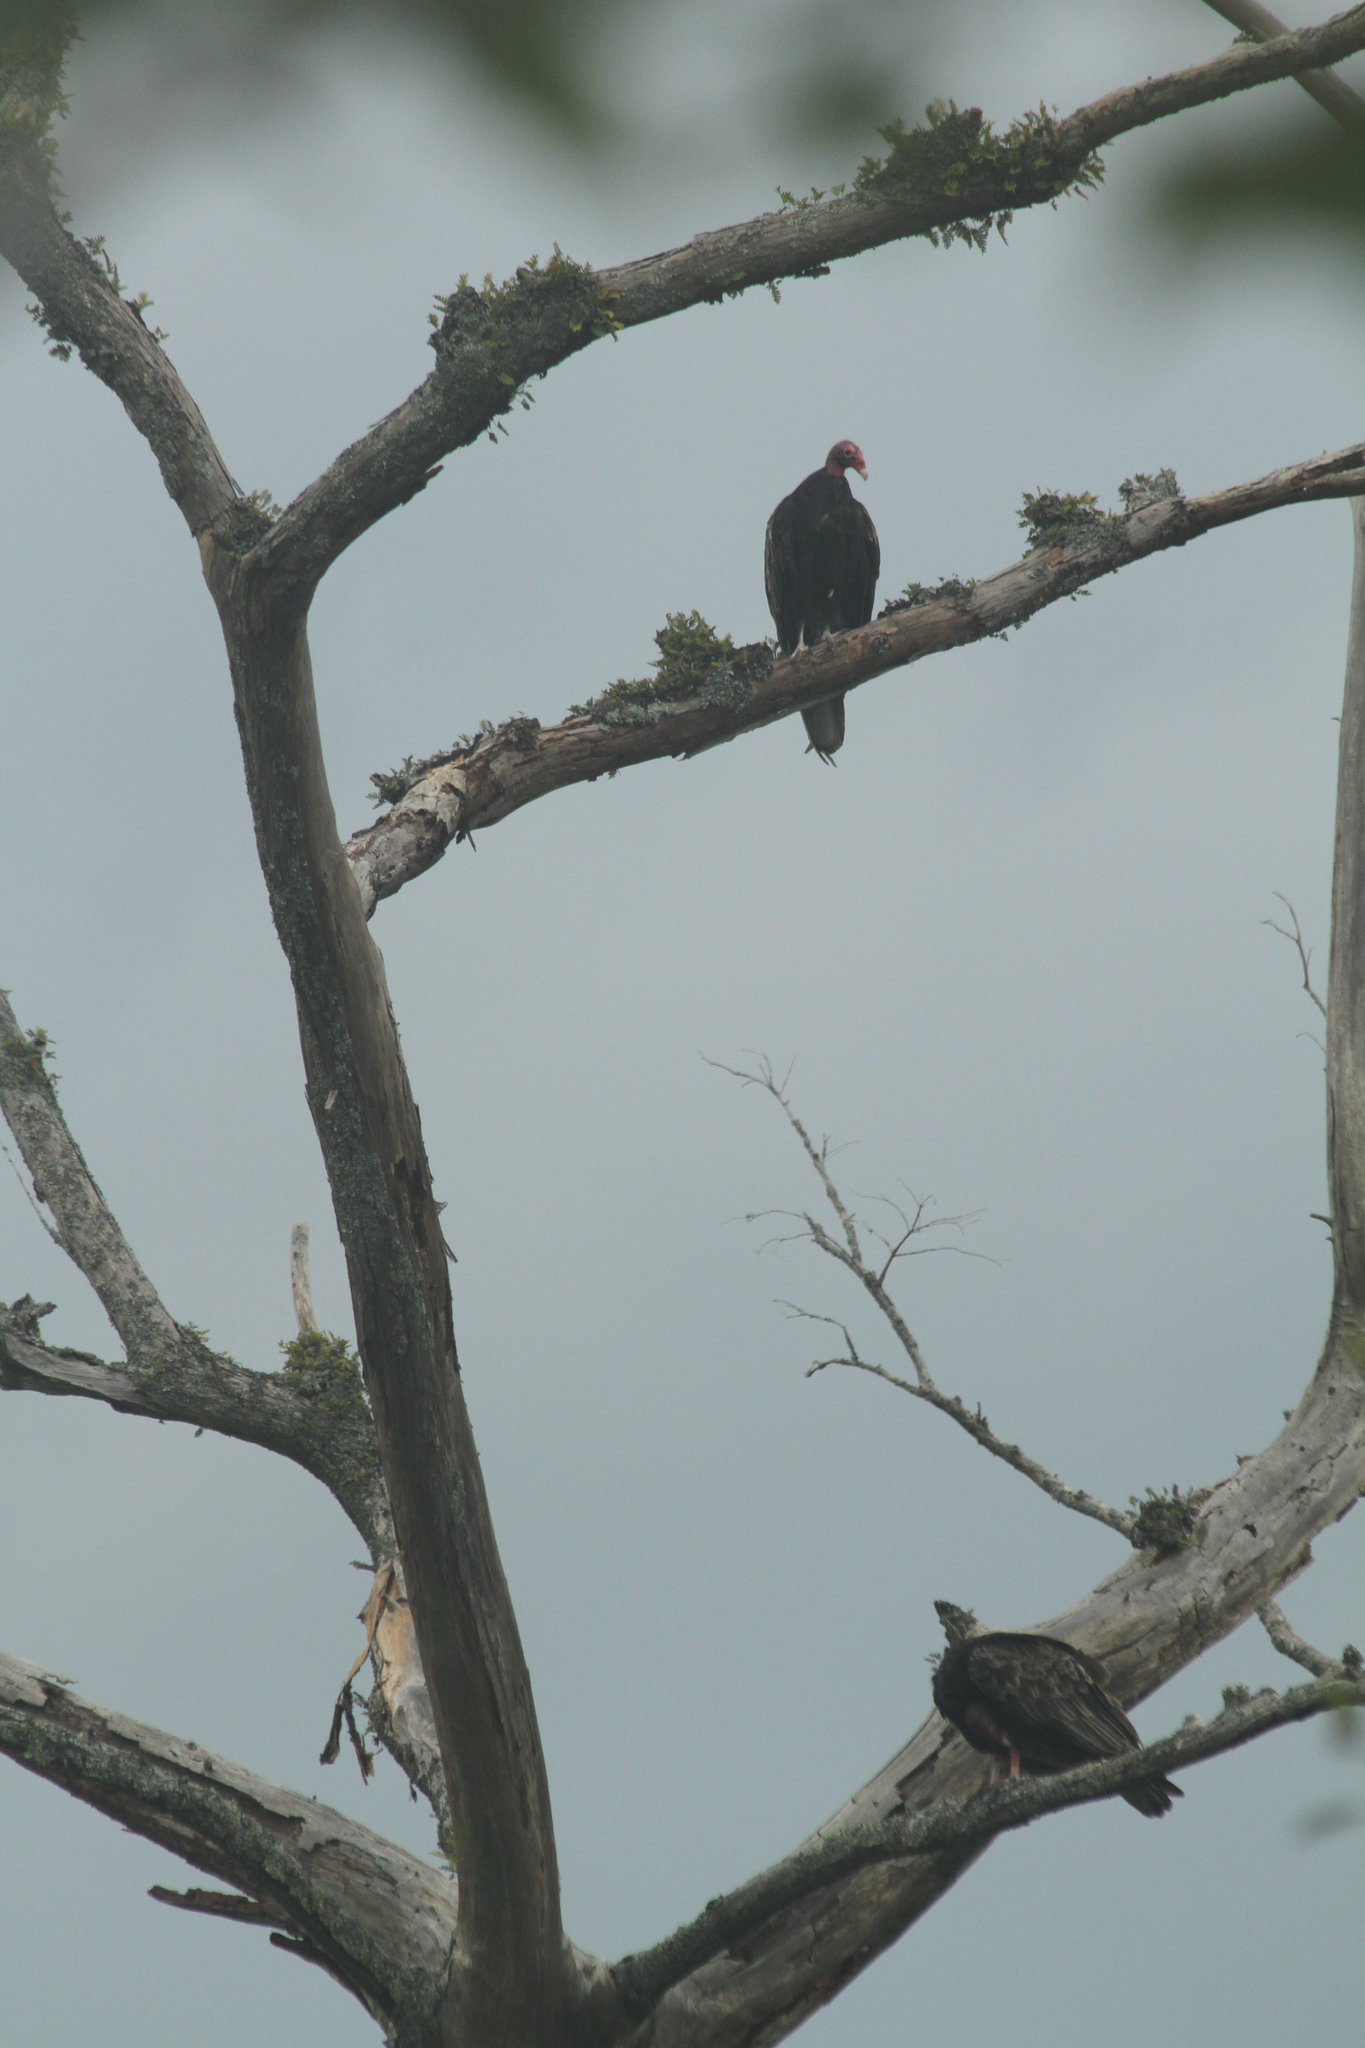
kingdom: Animalia
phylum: Chordata
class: Aves
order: Accipitriformes
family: Cathartidae
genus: Cathartes
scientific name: Cathartes aura
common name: Turkey vulture
